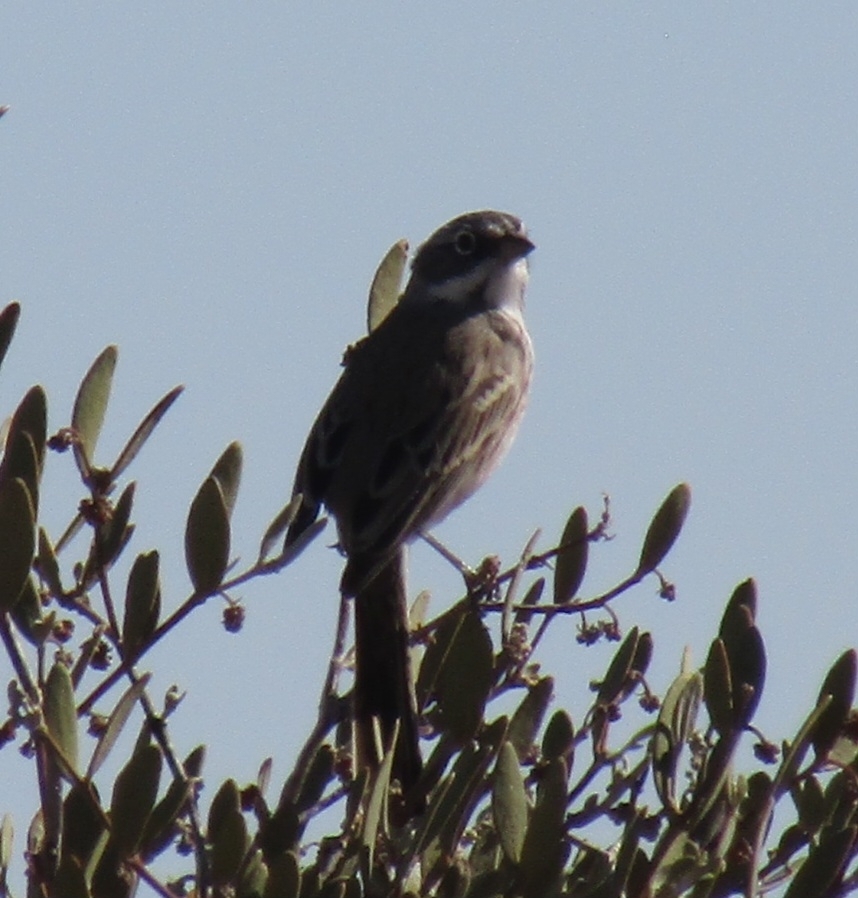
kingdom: Animalia
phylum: Chordata
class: Aves
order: Passeriformes
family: Passerellidae
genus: Artemisiospiza
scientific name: Artemisiospiza
